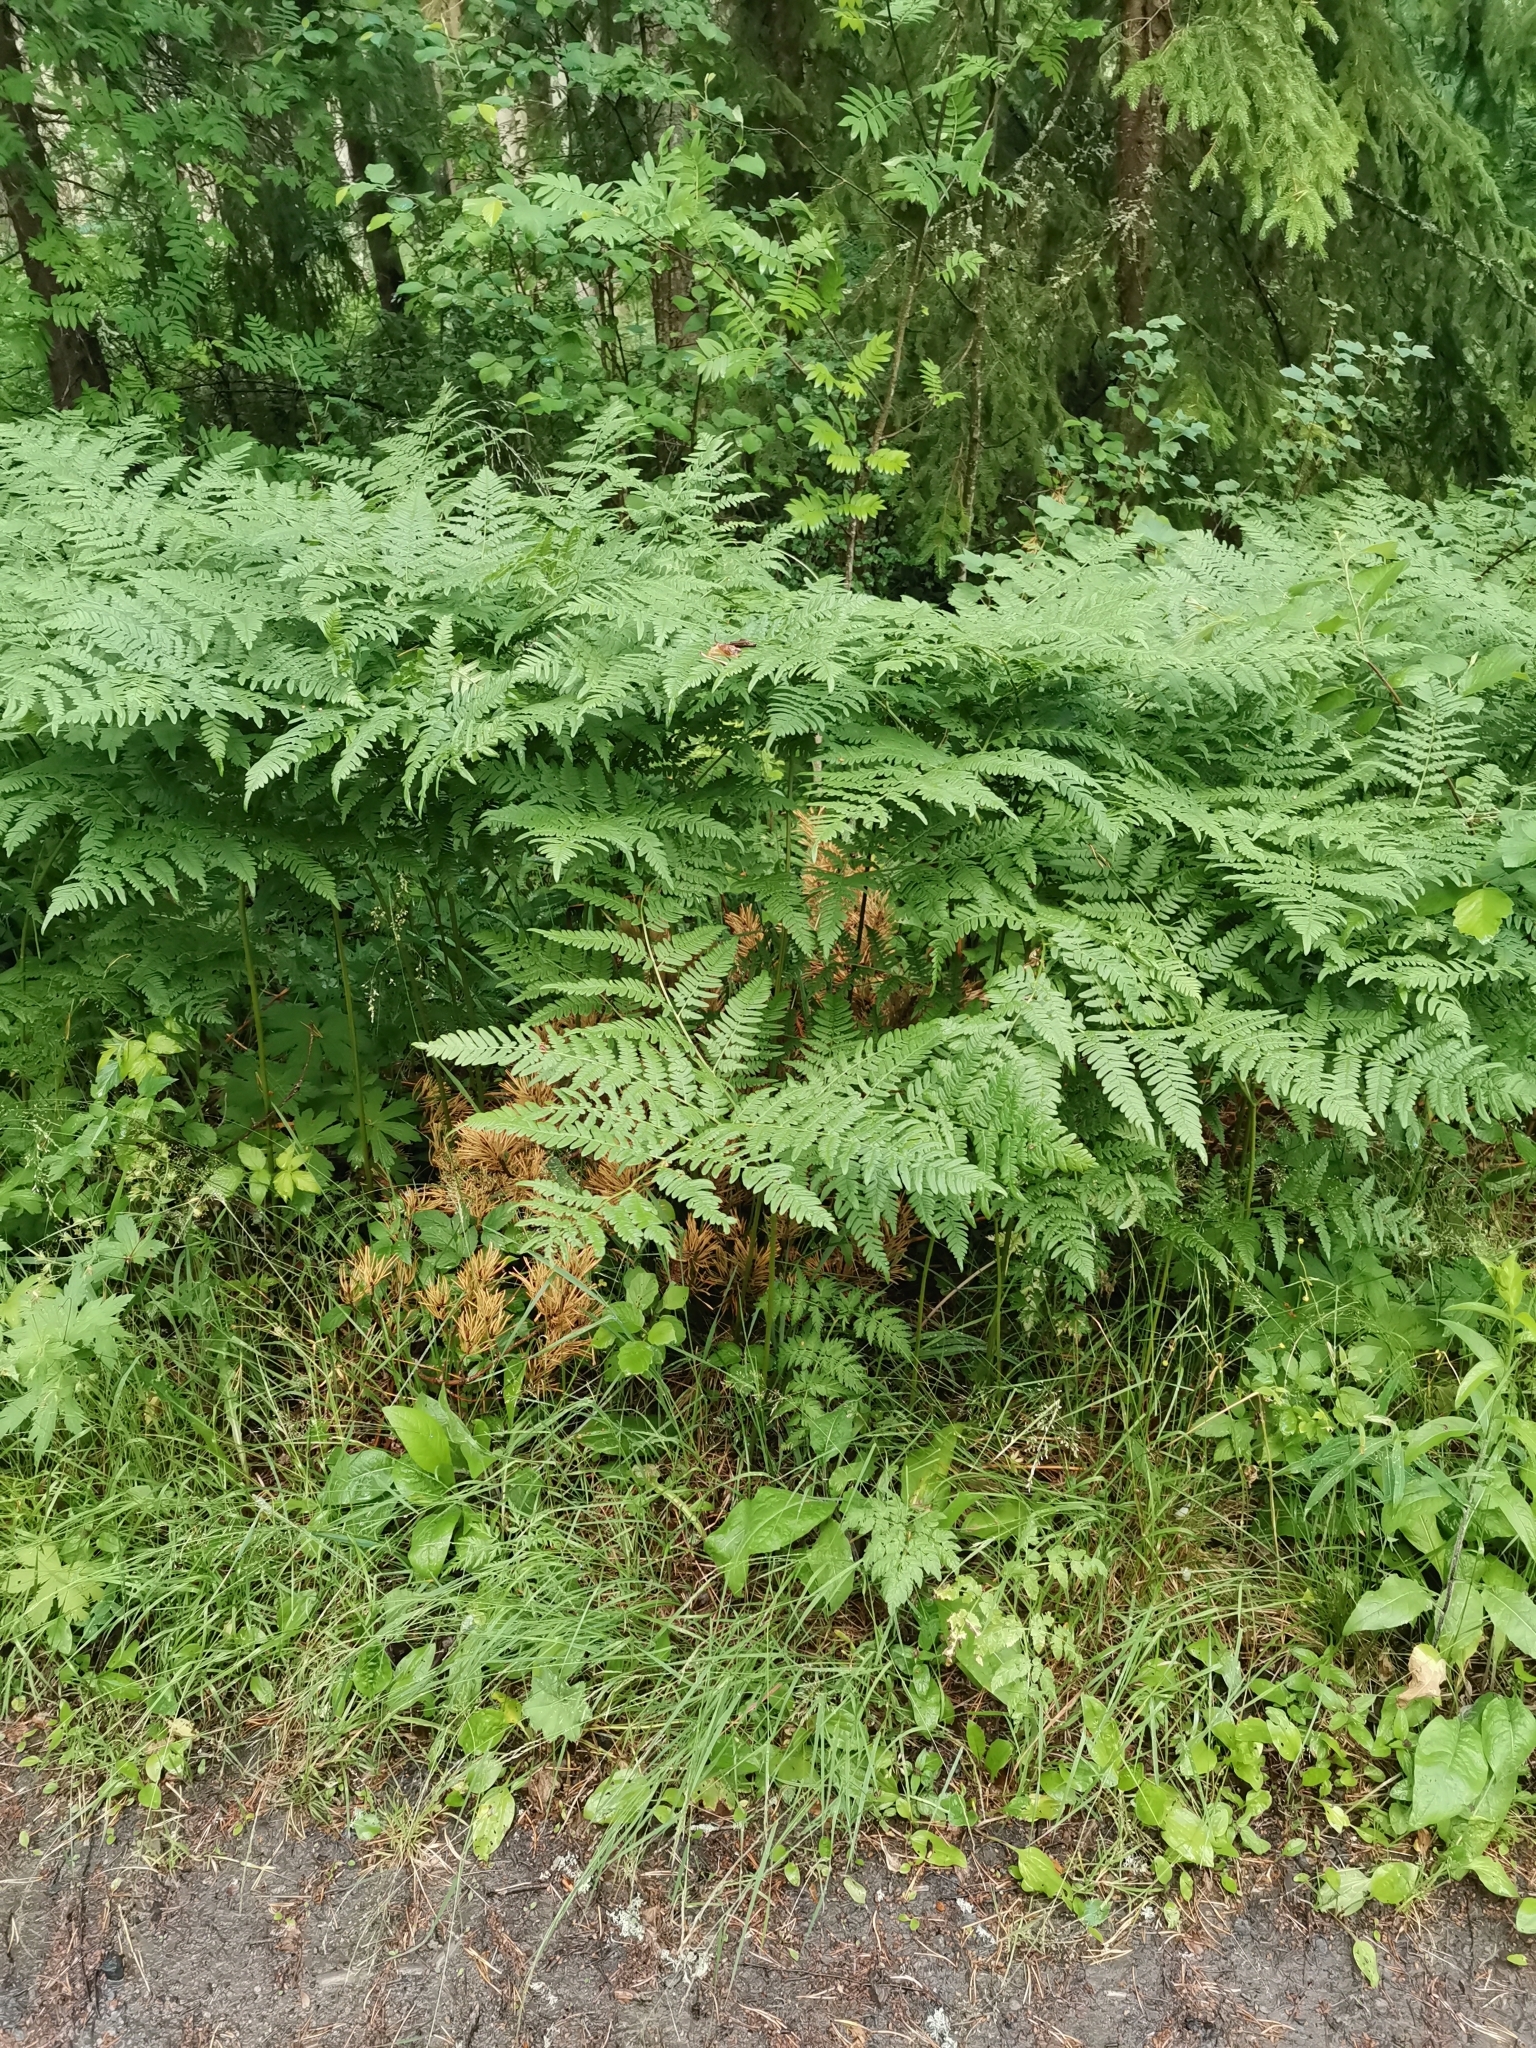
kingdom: Plantae
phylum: Tracheophyta
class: Polypodiopsida
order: Polypodiales
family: Dennstaedtiaceae
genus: Pteridium
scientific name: Pteridium aquilinum
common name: Bracken
